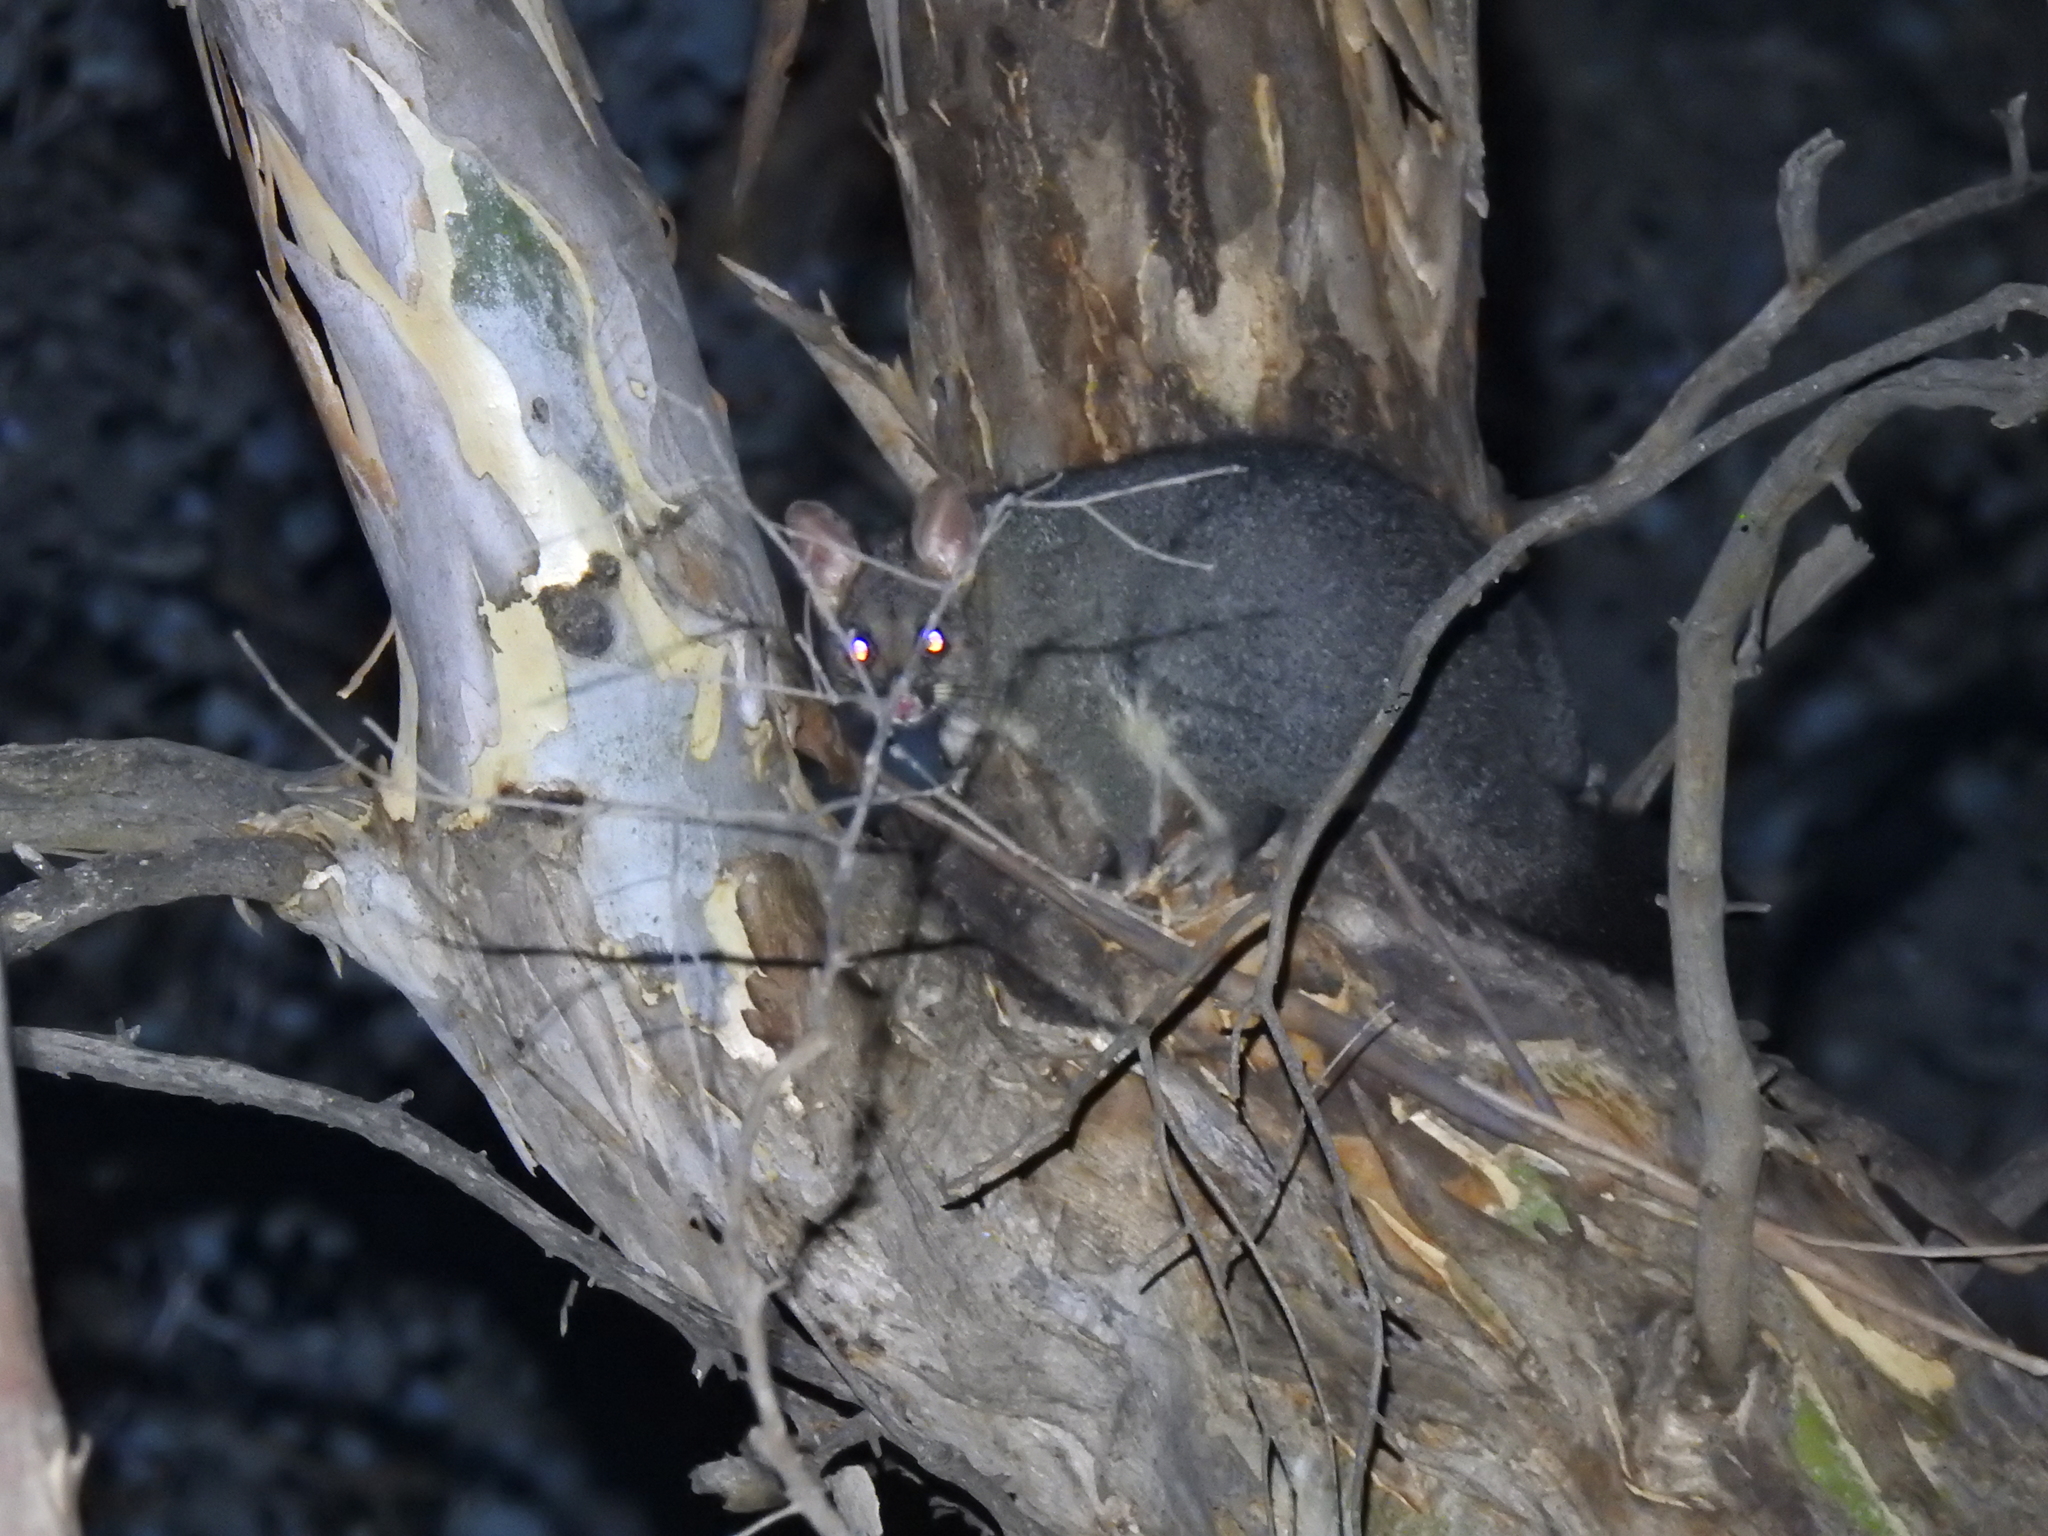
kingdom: Animalia
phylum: Chordata
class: Mammalia
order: Diprotodontia
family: Phalangeridae
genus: Trichosurus
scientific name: Trichosurus vulpecula
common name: Common brushtail
